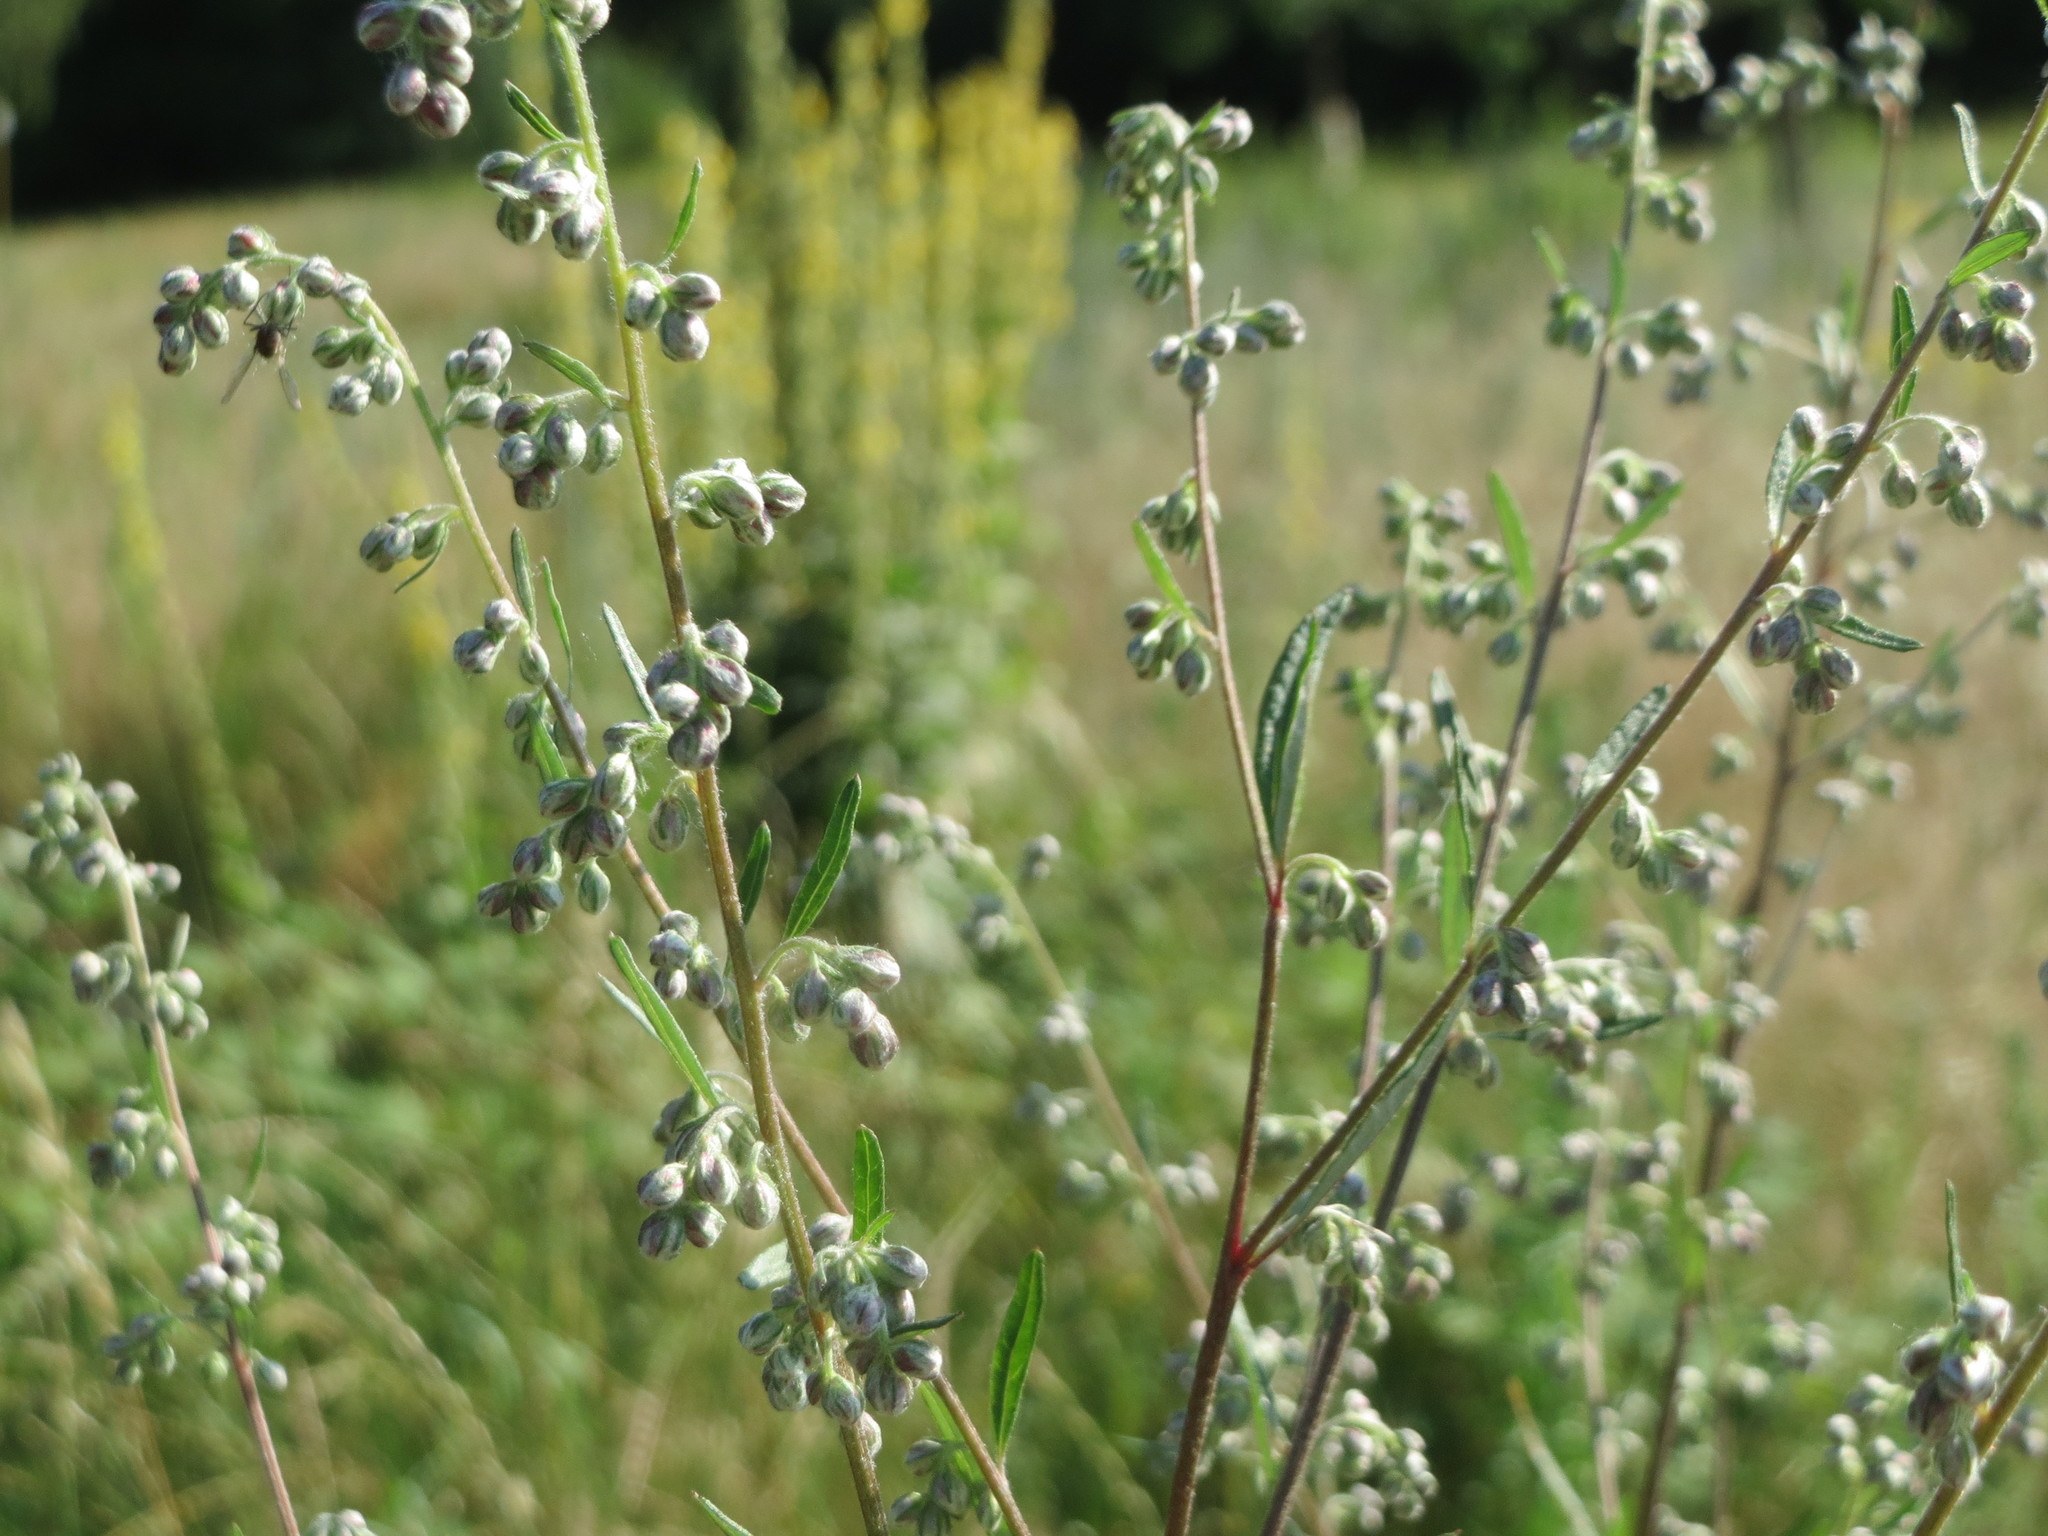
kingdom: Plantae
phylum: Tracheophyta
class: Magnoliopsida
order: Asterales
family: Asteraceae
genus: Artemisia
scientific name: Artemisia vulgaris
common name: Mugwort
